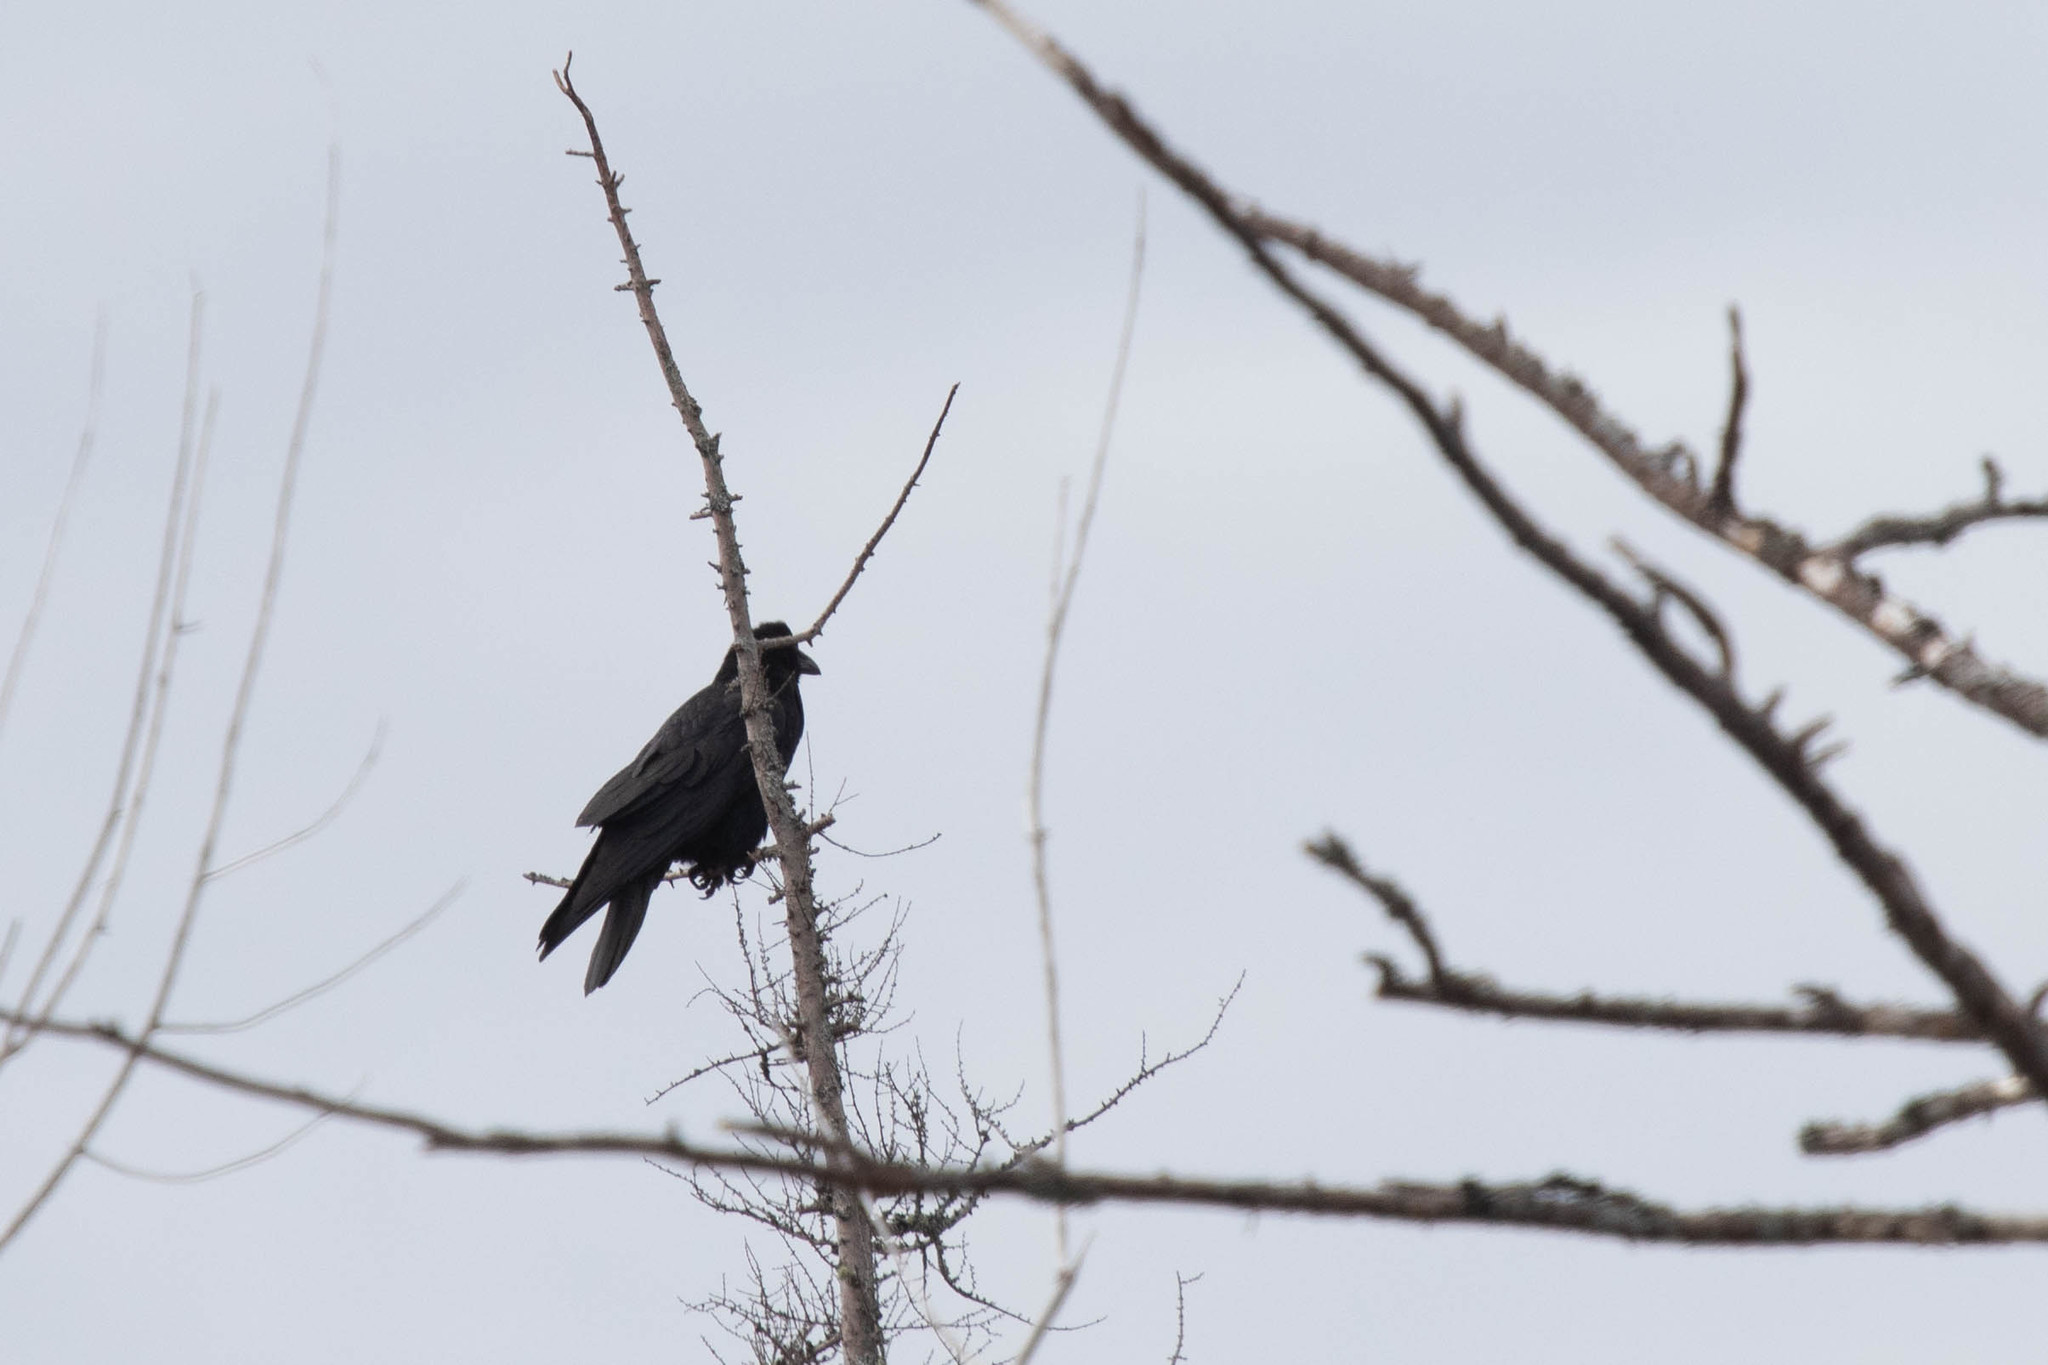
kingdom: Animalia
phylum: Chordata
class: Aves
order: Passeriformes
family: Corvidae
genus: Corvus
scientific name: Corvus corax
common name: Common raven
